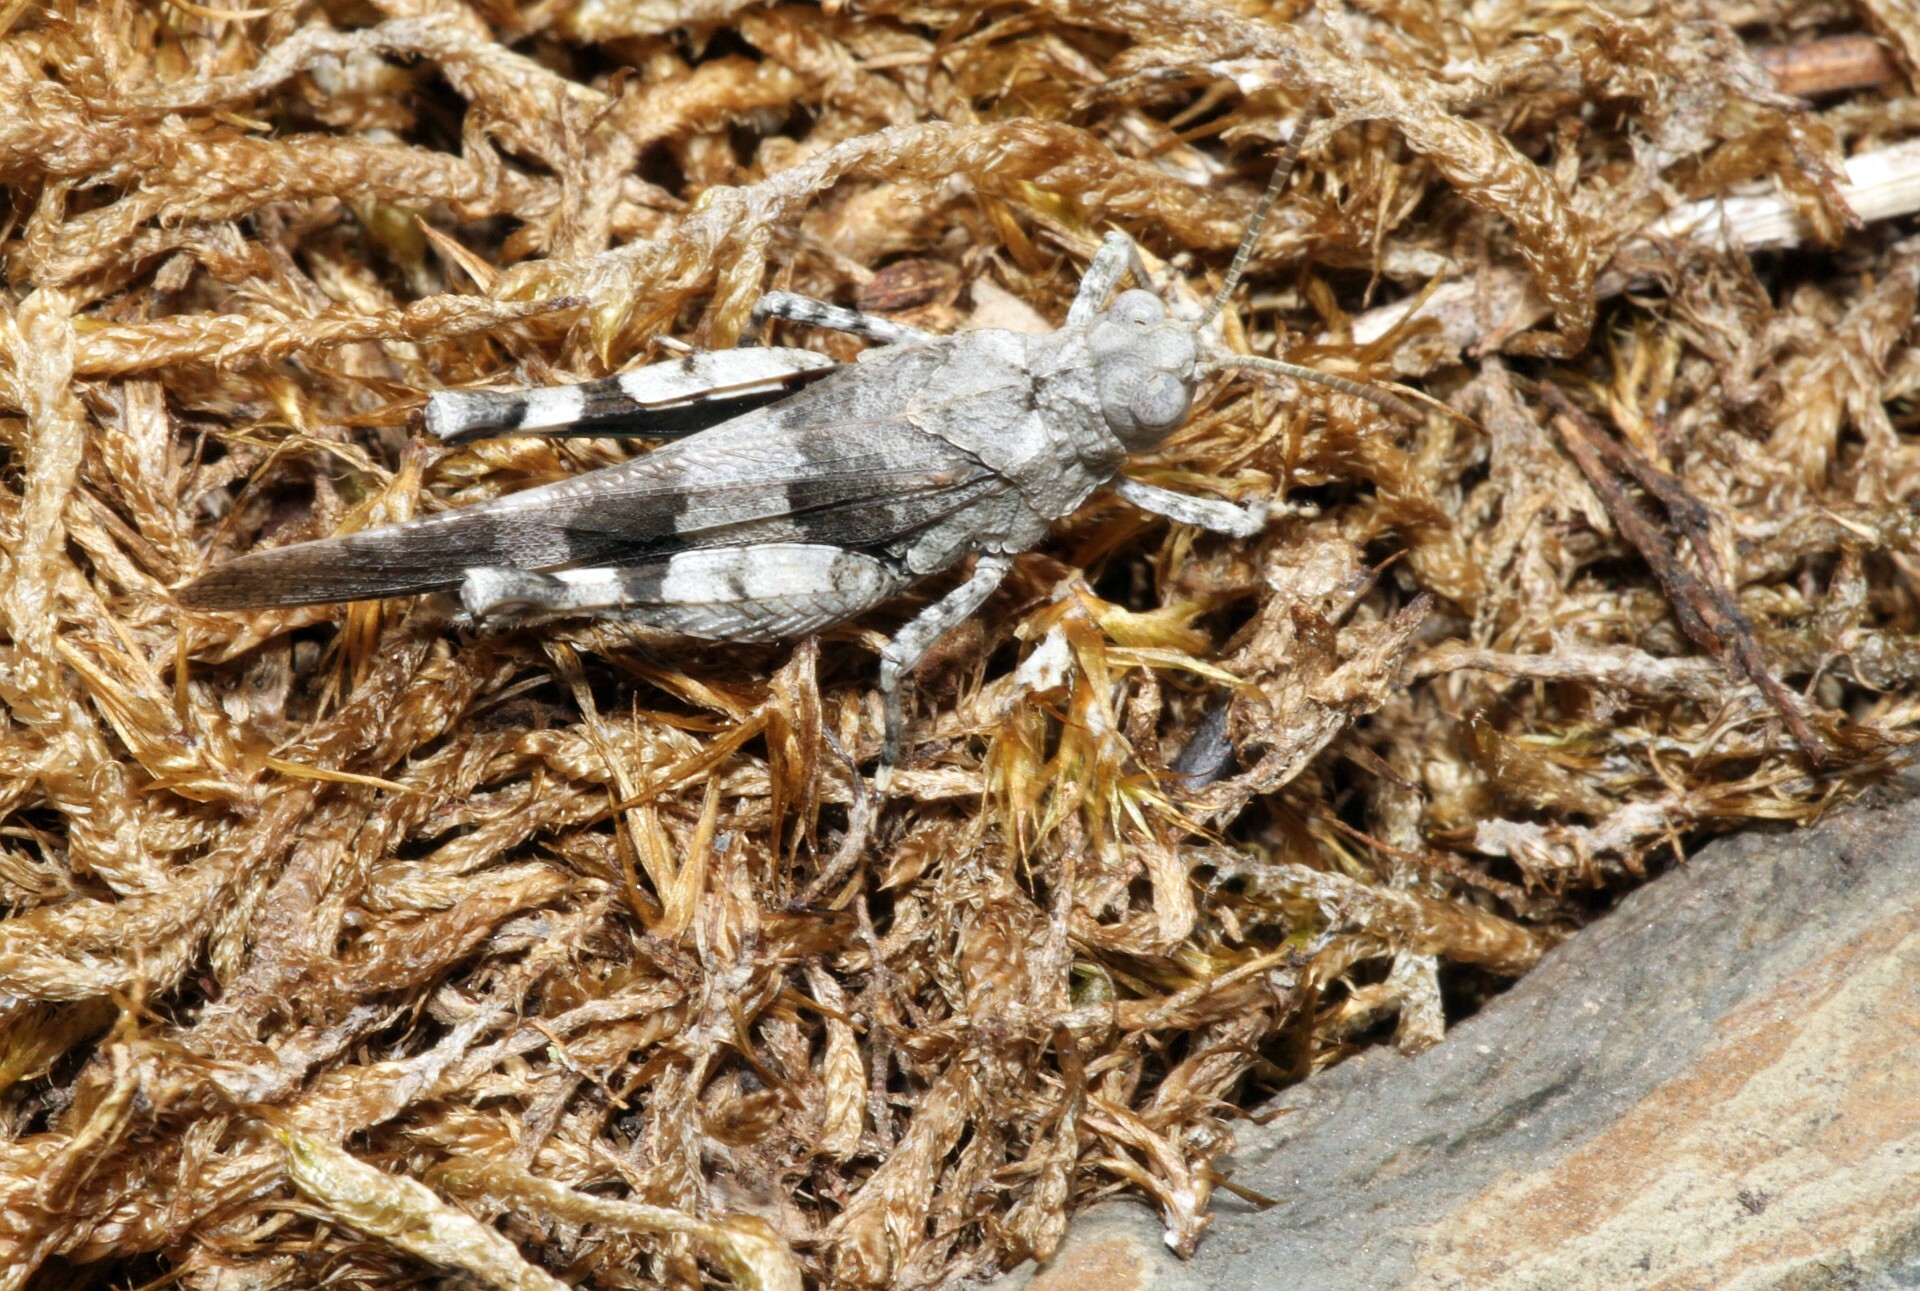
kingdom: Animalia
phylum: Arthropoda
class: Insecta
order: Orthoptera
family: Acrididae
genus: Oedipoda
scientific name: Oedipoda caerulescens
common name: Blue-winged grasshopper
